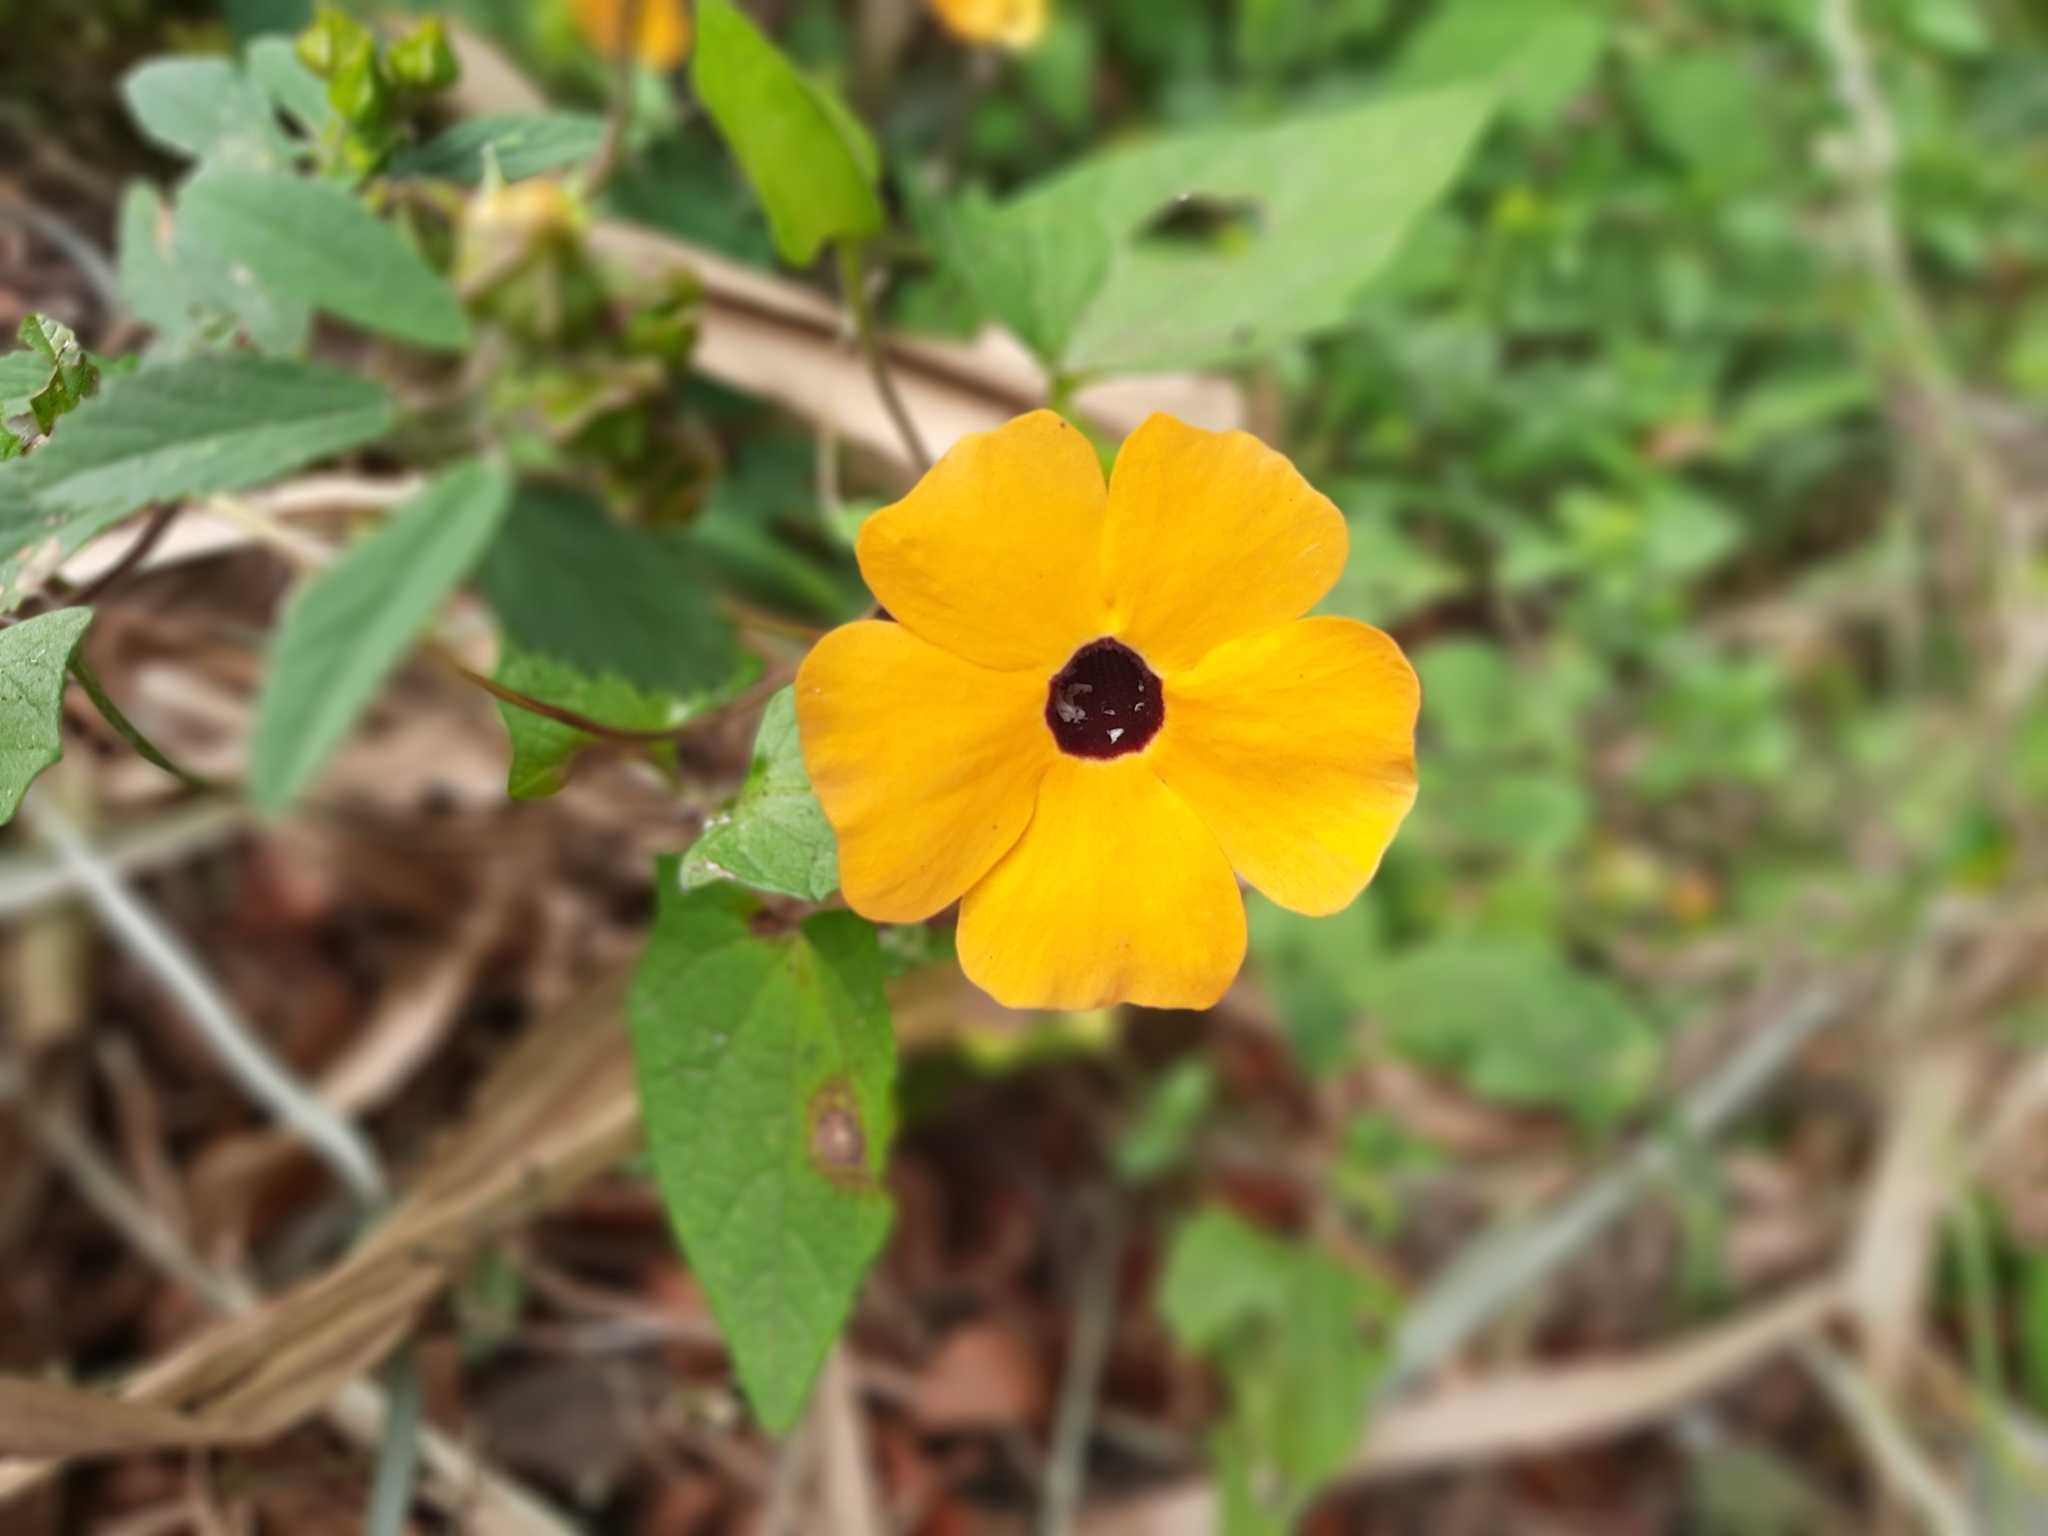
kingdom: Plantae
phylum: Tracheophyta
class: Magnoliopsida
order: Lamiales
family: Acanthaceae
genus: Thunbergia
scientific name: Thunbergia alata
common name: Blackeyed susan vine
